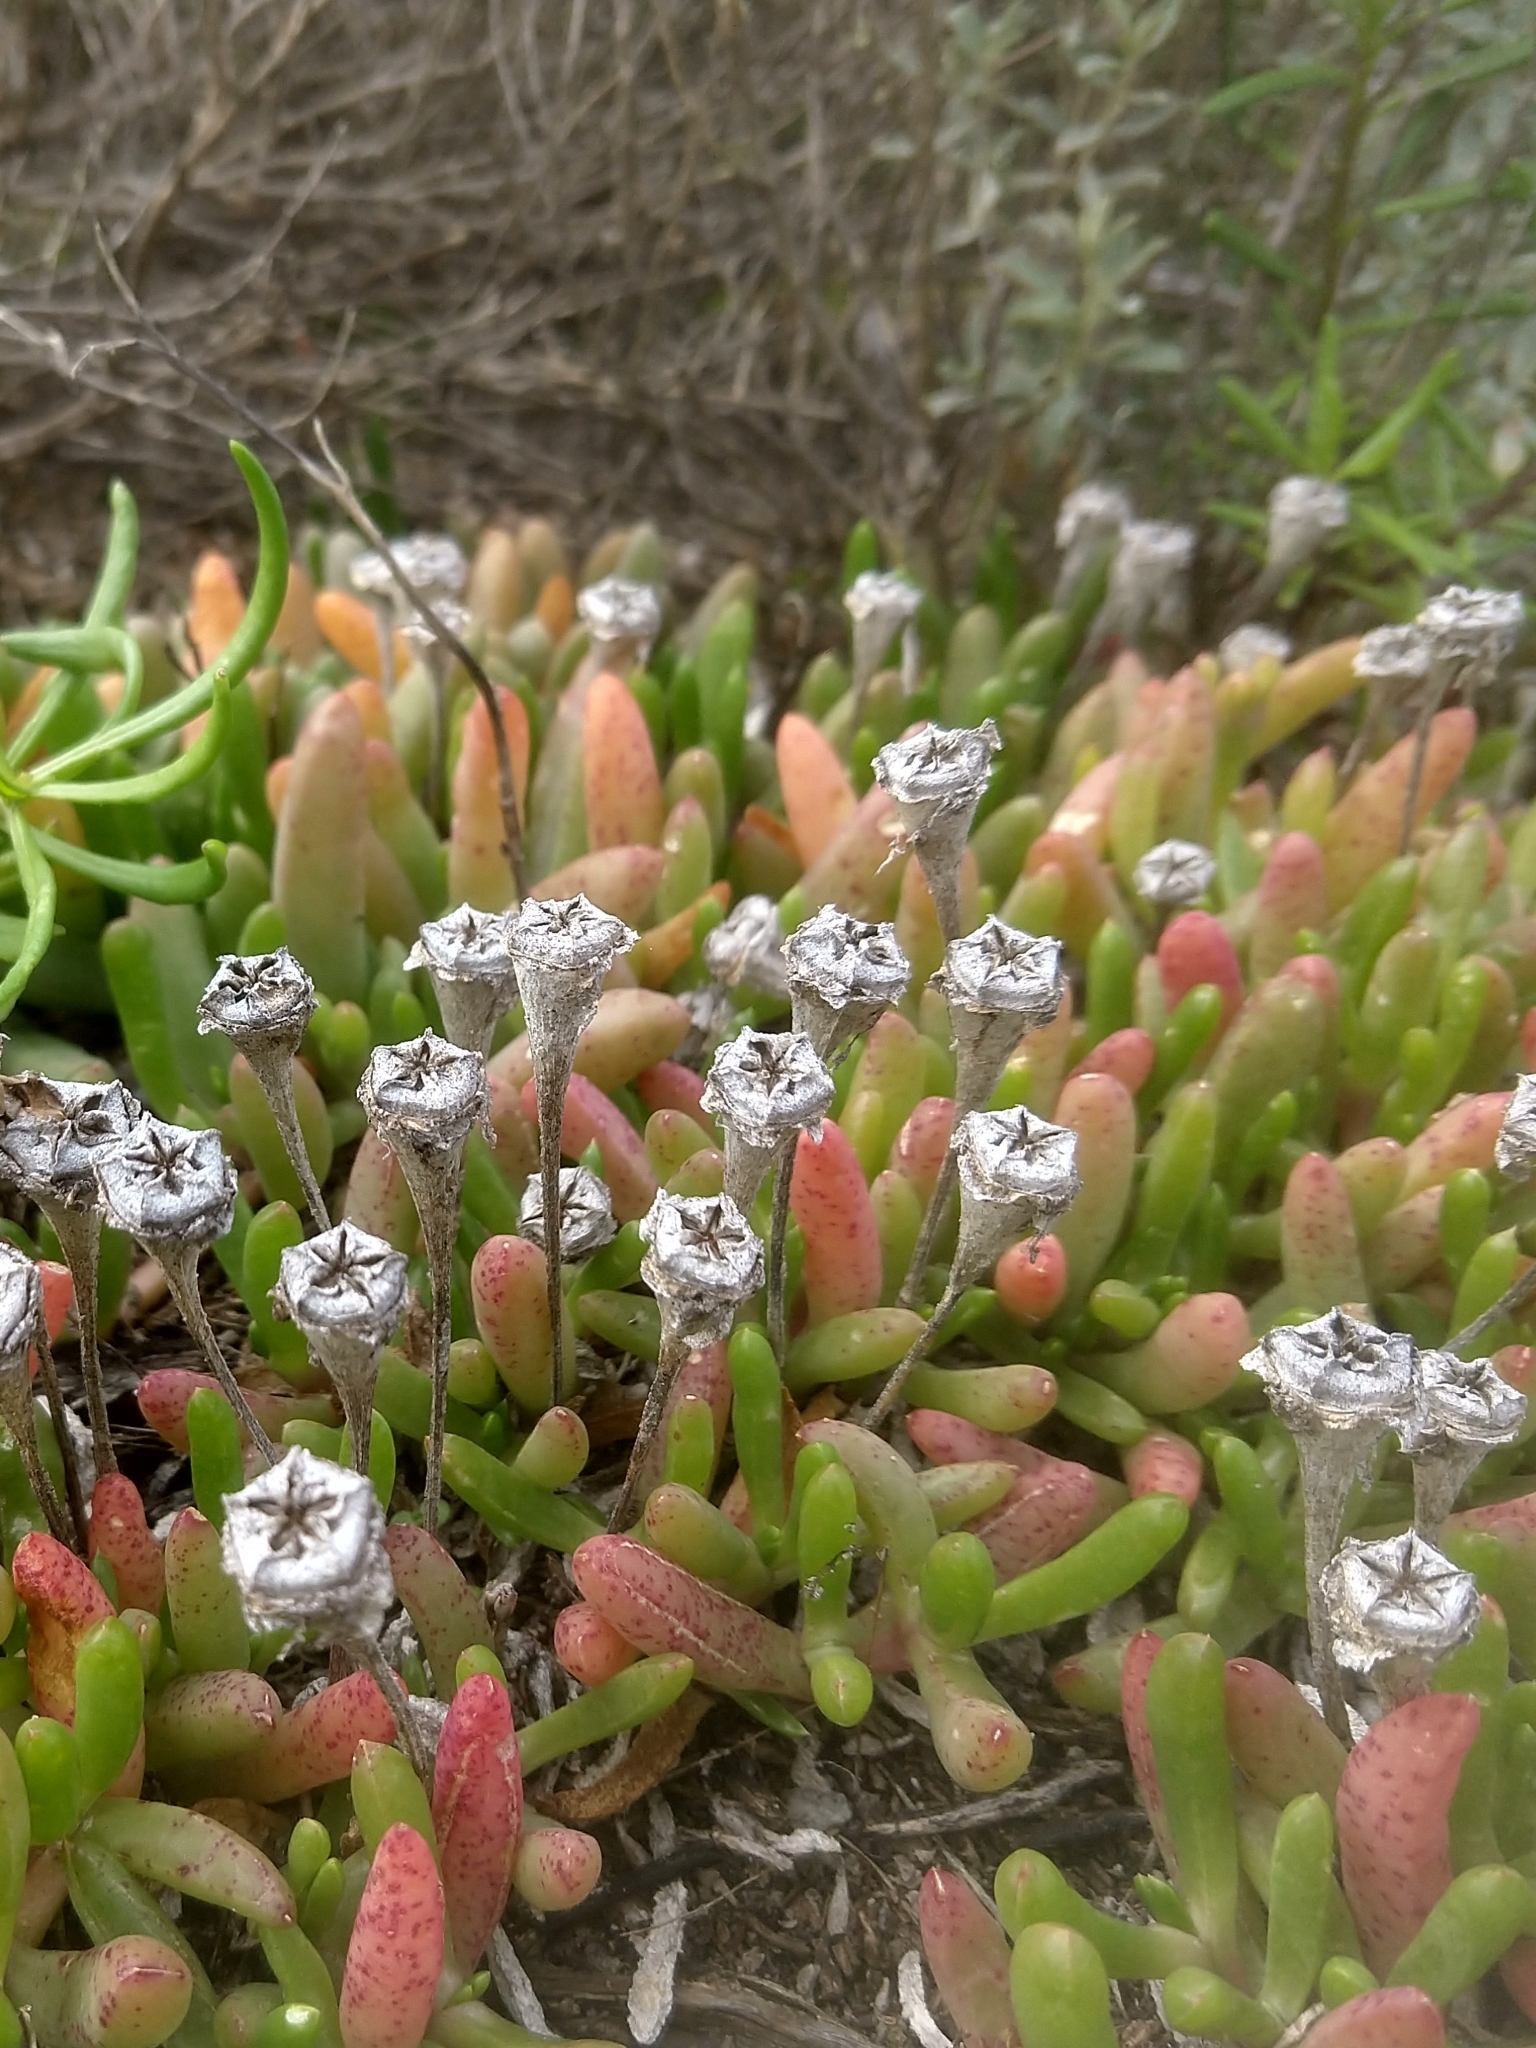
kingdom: Plantae
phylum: Tracheophyta
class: Magnoliopsida
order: Caryophyllales
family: Aizoaceae
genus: Disphyma
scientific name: Disphyma crassifolium
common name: Purple dewplant
